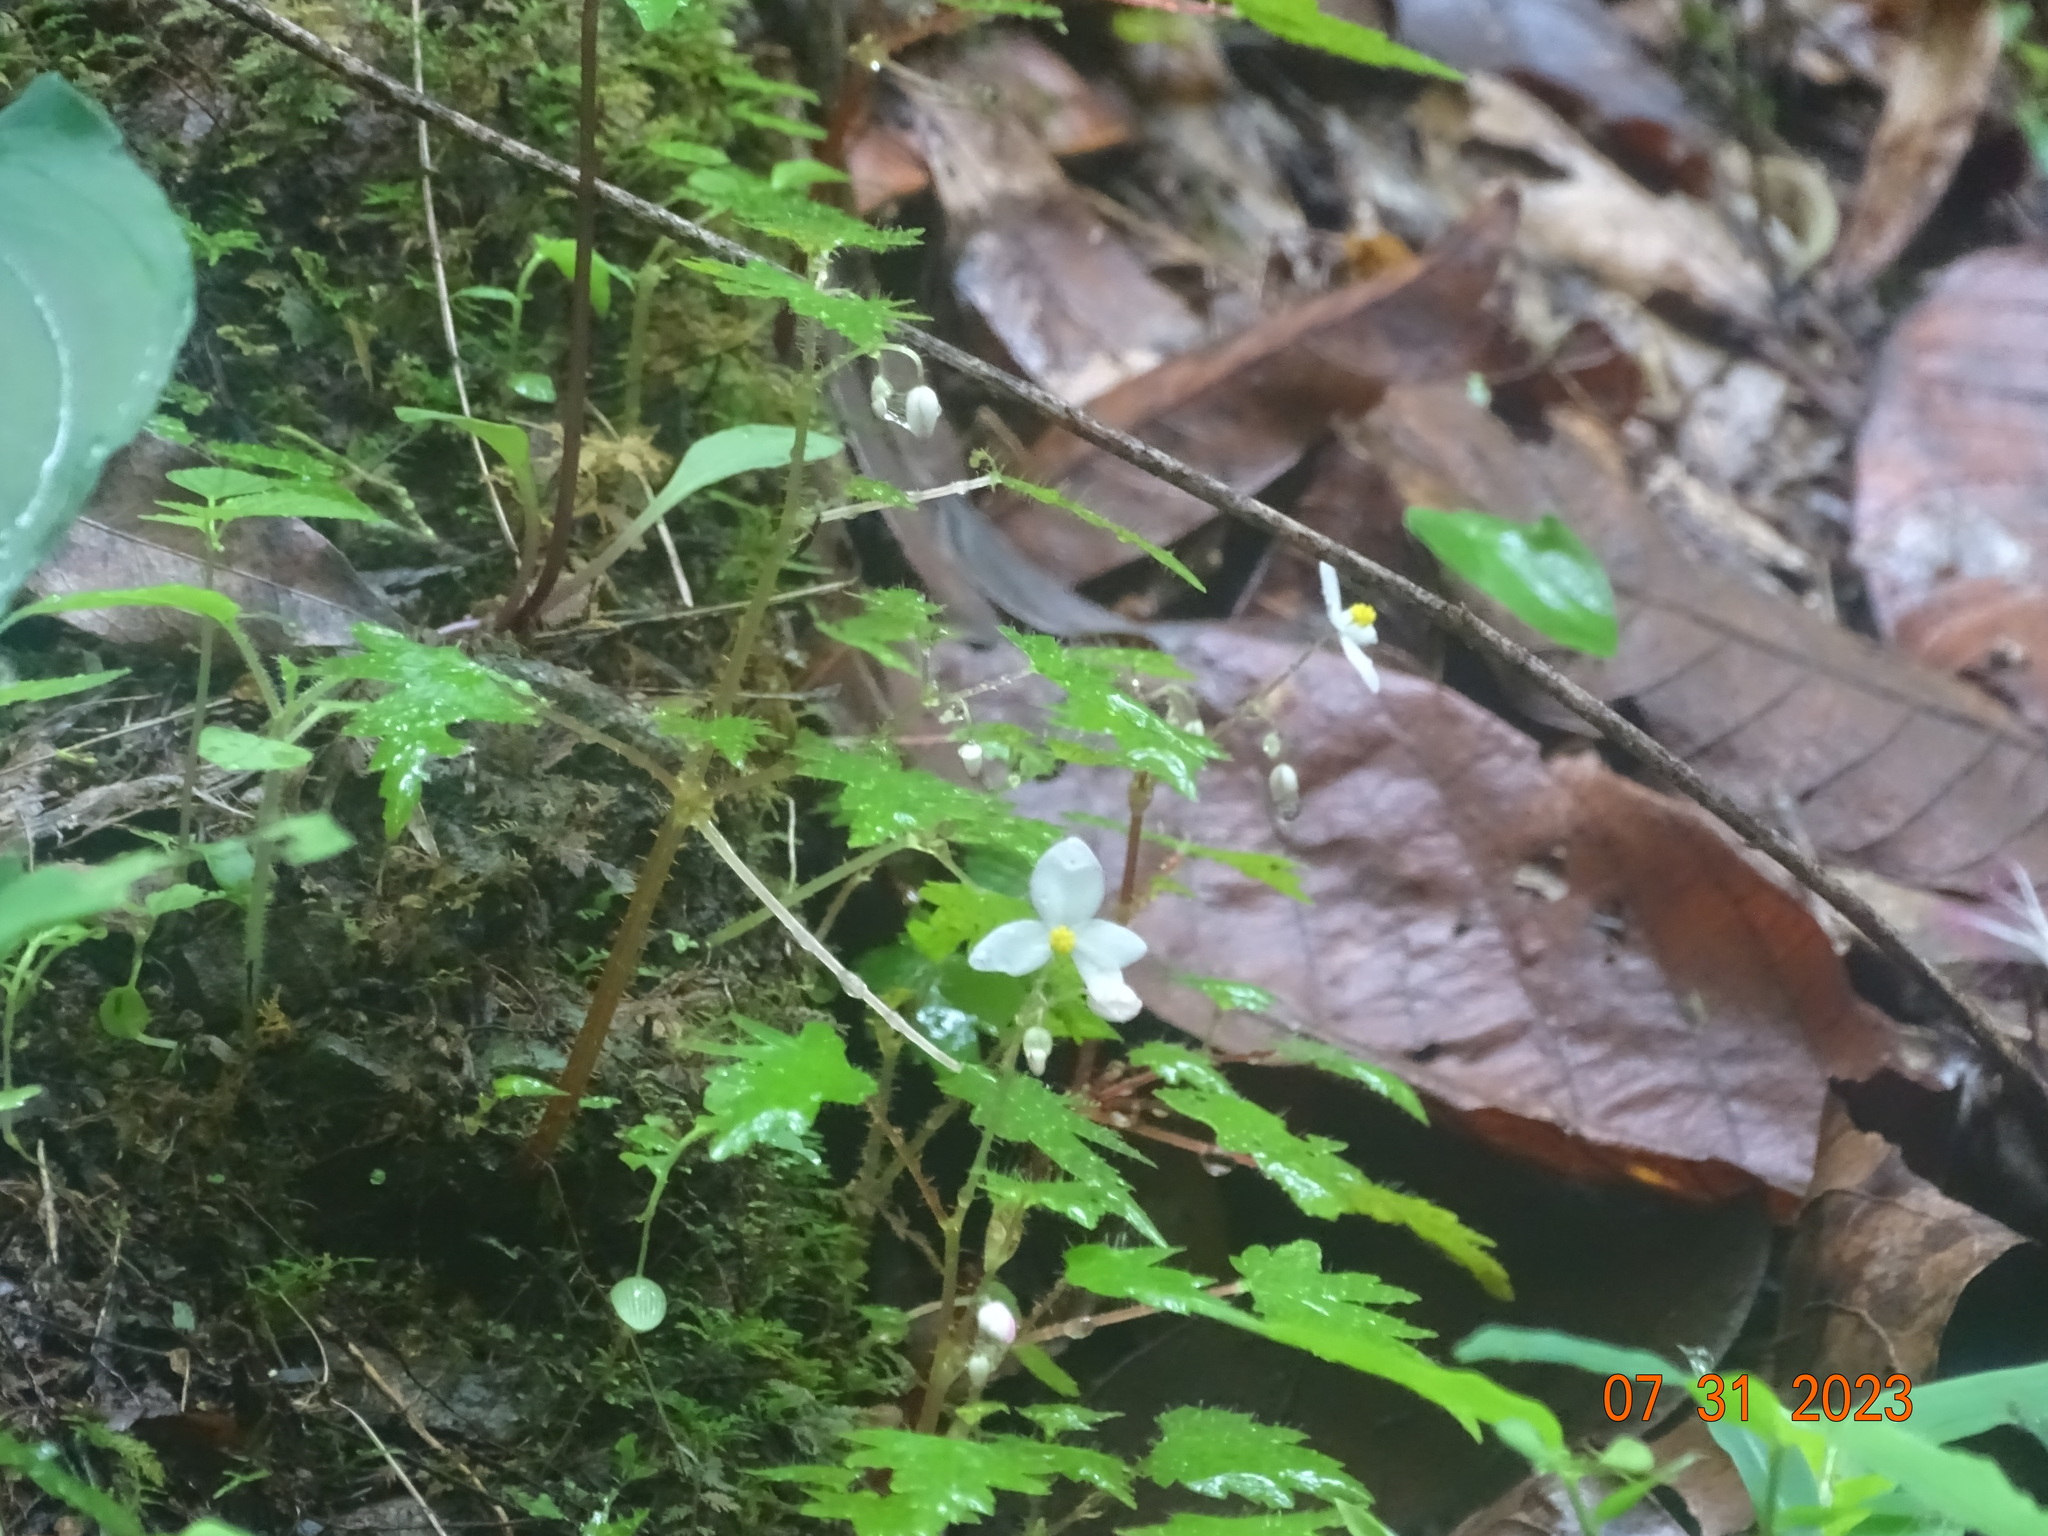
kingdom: Plantae
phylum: Tracheophyta
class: Magnoliopsida
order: Cucurbitales
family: Begoniaceae
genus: Begonia
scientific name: Begonia lachaoensis
